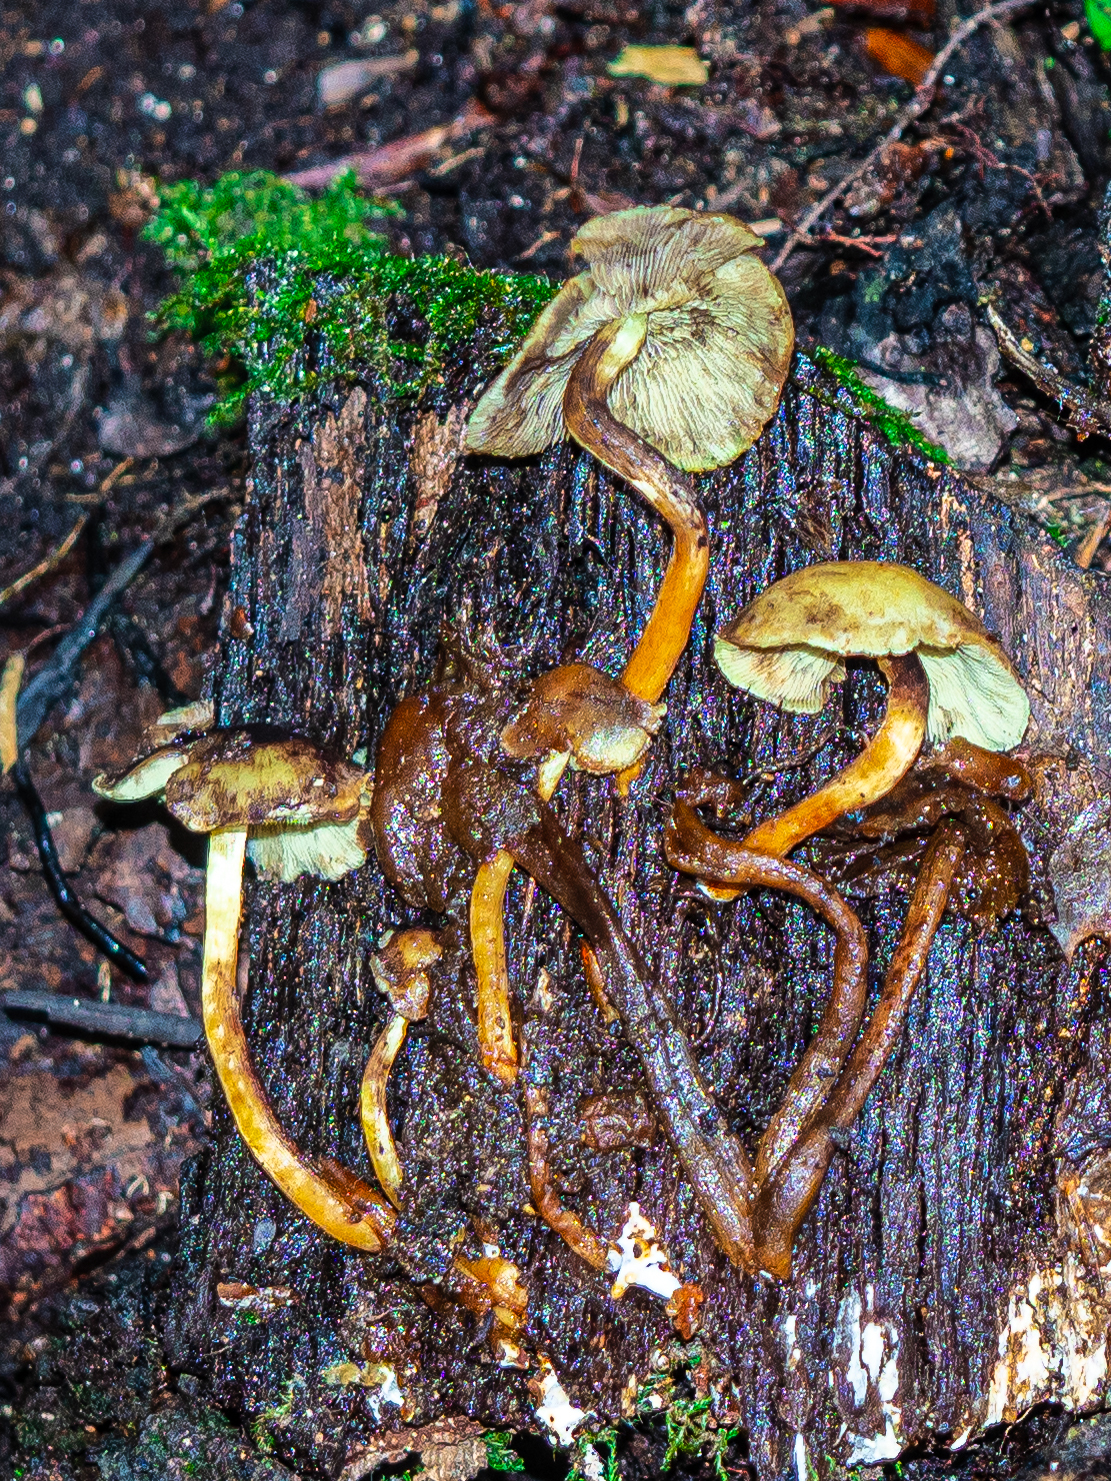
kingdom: Fungi
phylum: Basidiomycota
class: Agaricomycetes
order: Agaricales
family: Strophariaceae
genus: Hypholoma
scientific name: Hypholoma fasciculare
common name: Sulphur tuft
